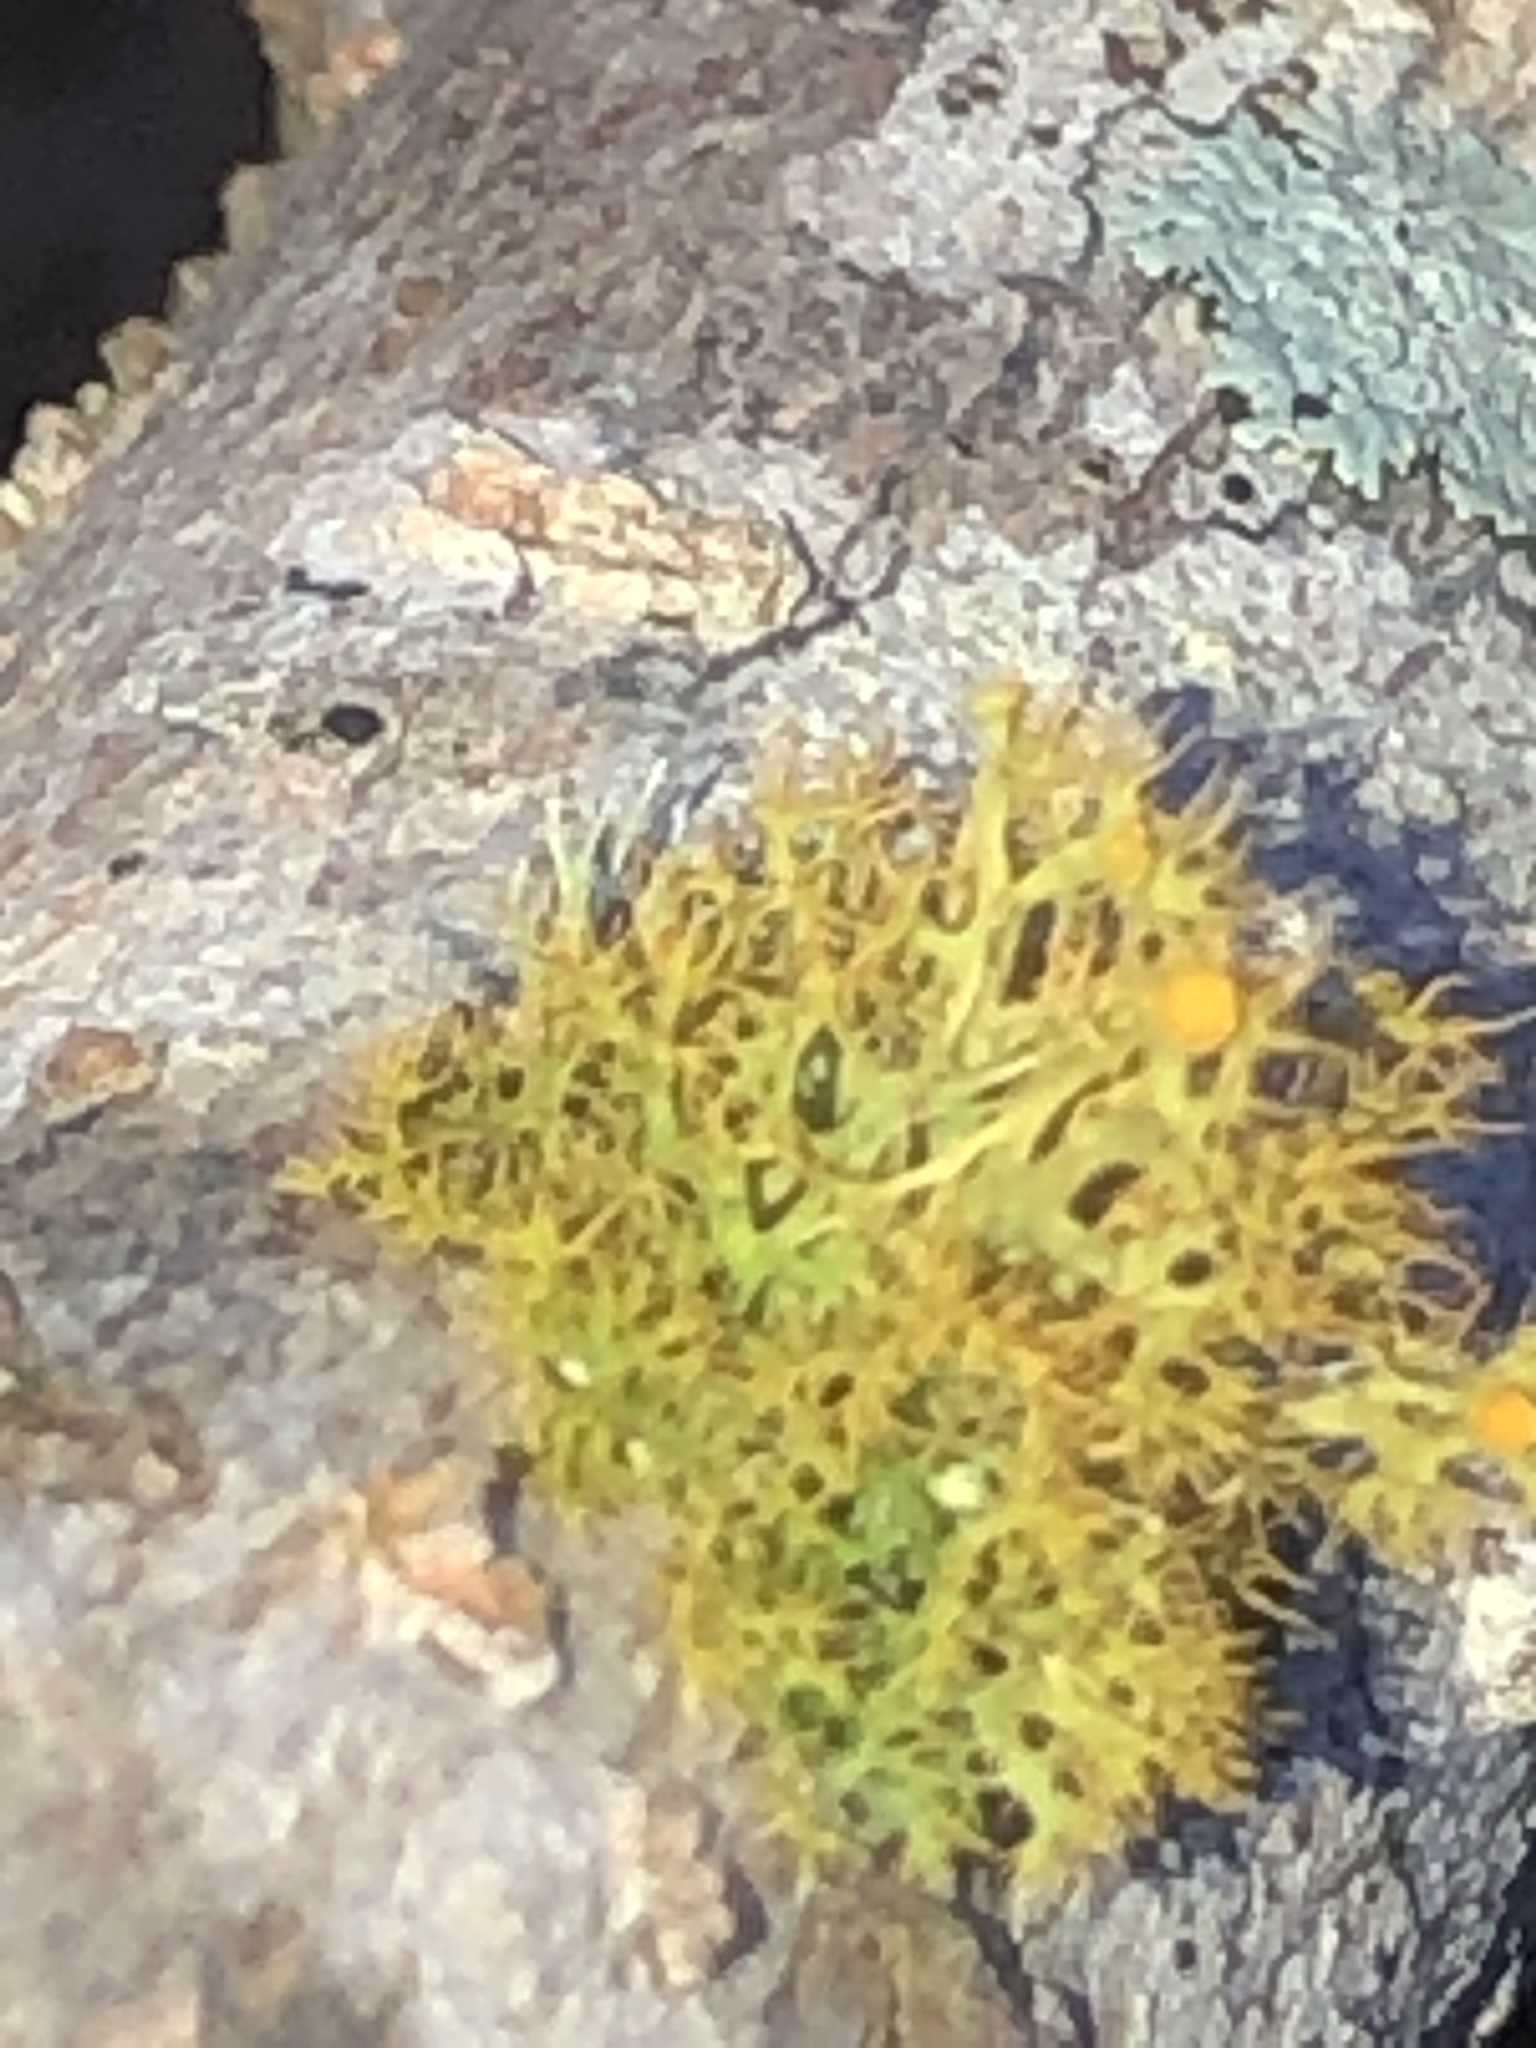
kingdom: Fungi
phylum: Ascomycota
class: Lecanoromycetes
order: Teloschistales
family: Teloschistaceae
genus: Niorma
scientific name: Niorma chrysophthalma
